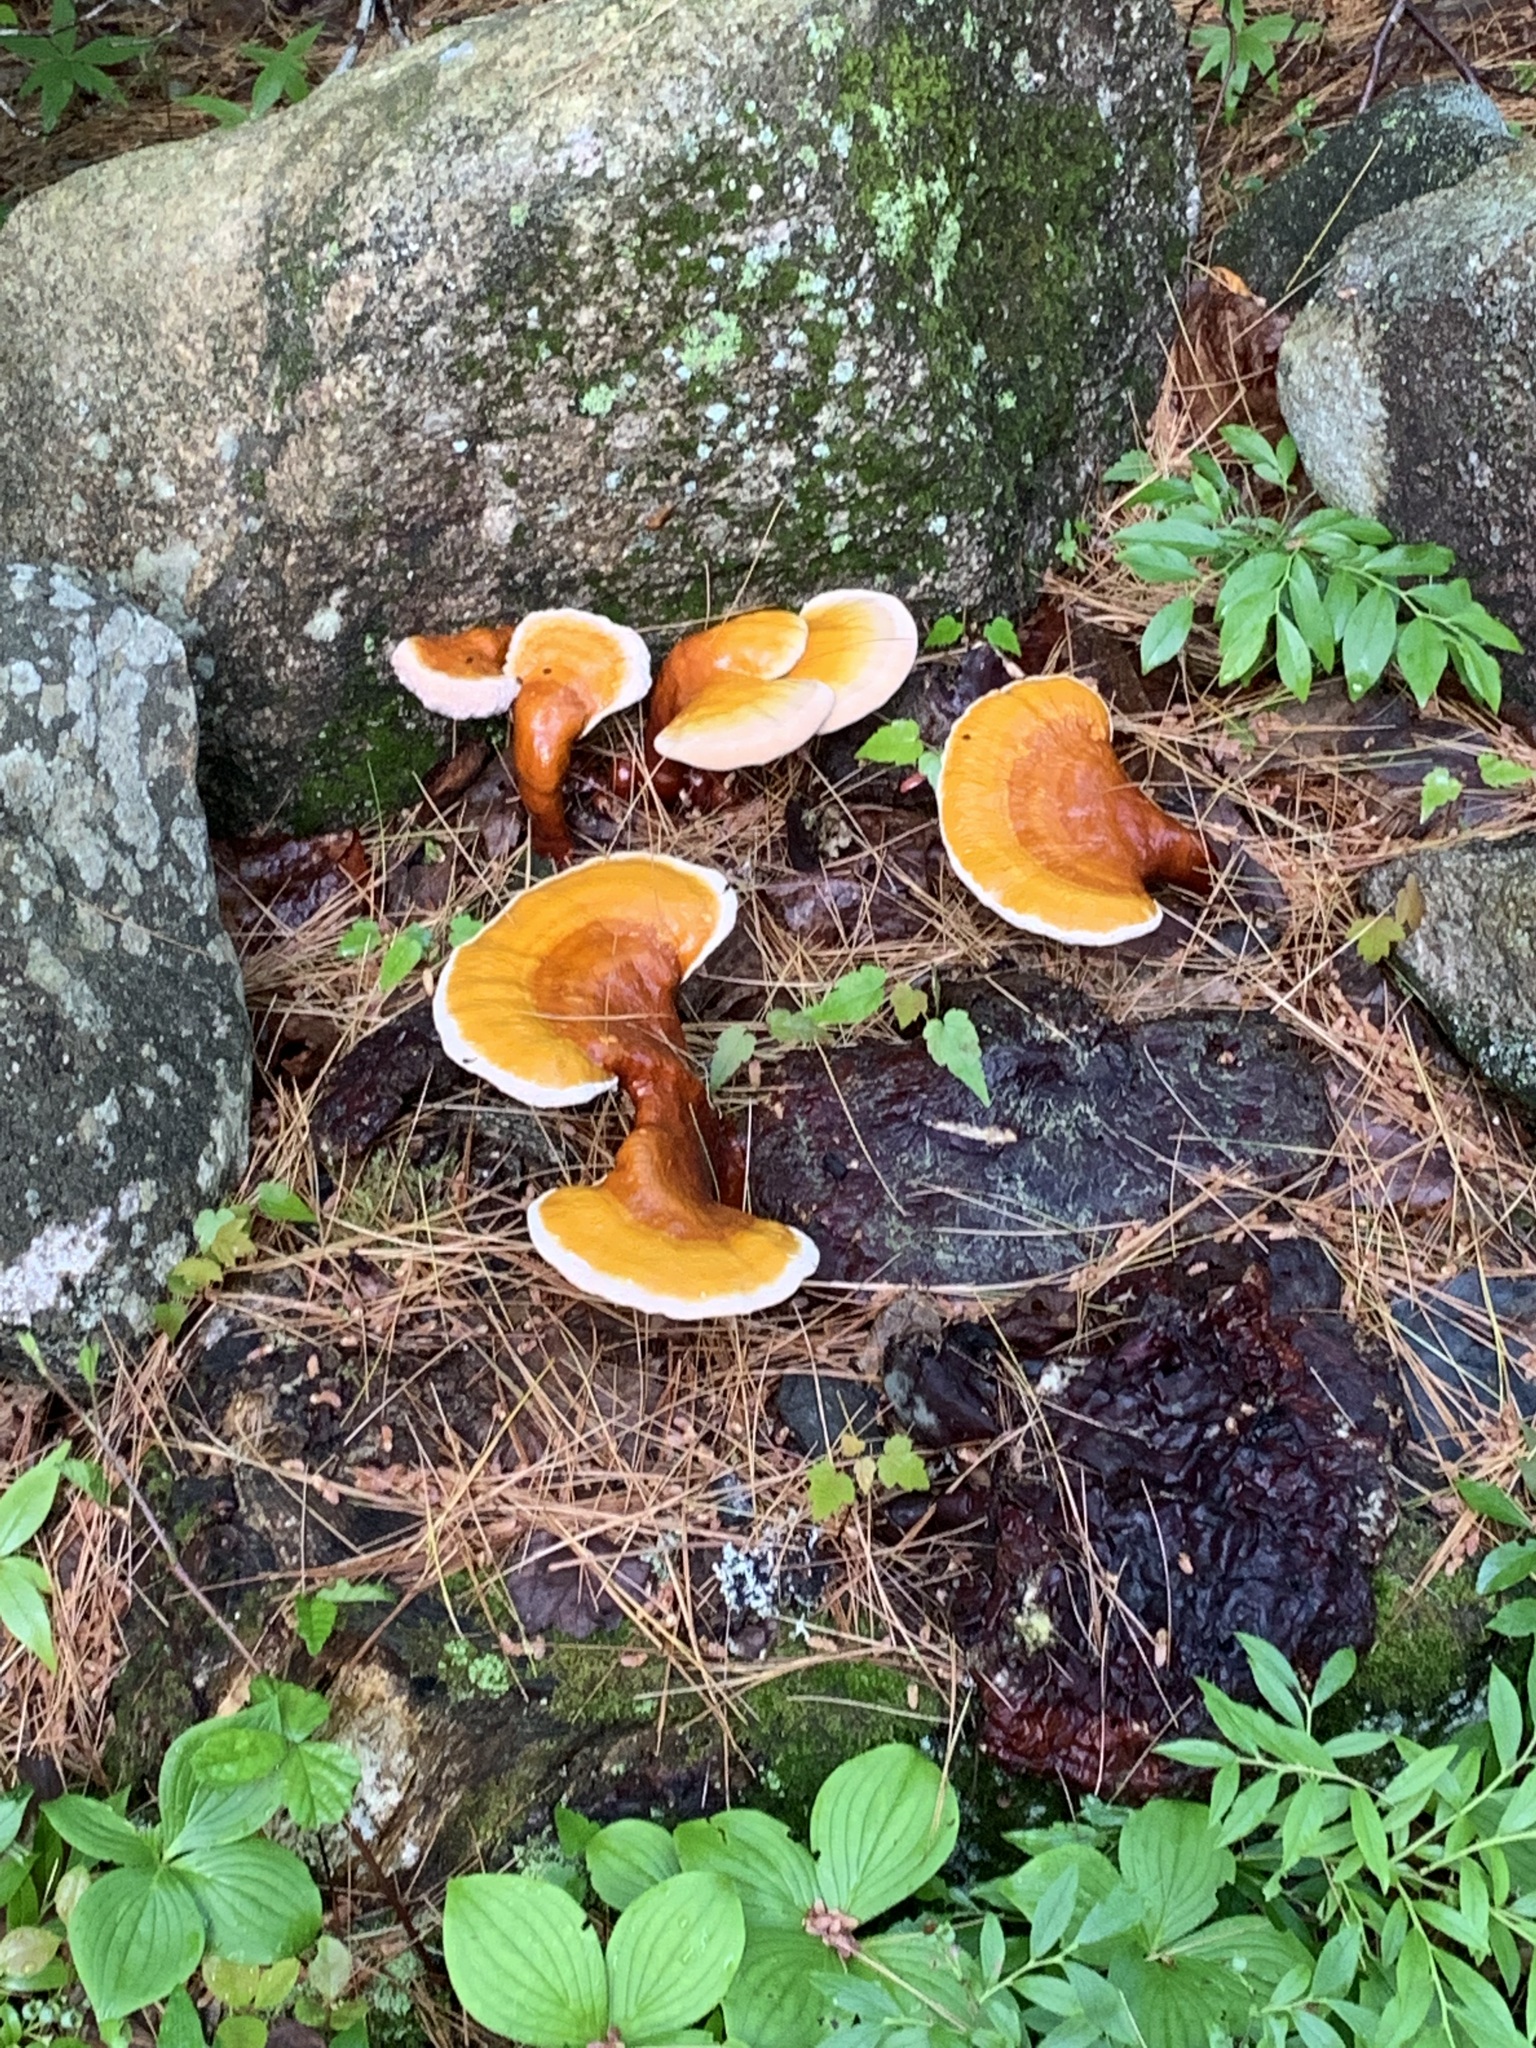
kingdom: Fungi
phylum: Basidiomycota
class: Agaricomycetes
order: Polyporales
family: Polyporaceae
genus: Ganoderma
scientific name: Ganoderma tsugae
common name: Hemlock varnish shelf
